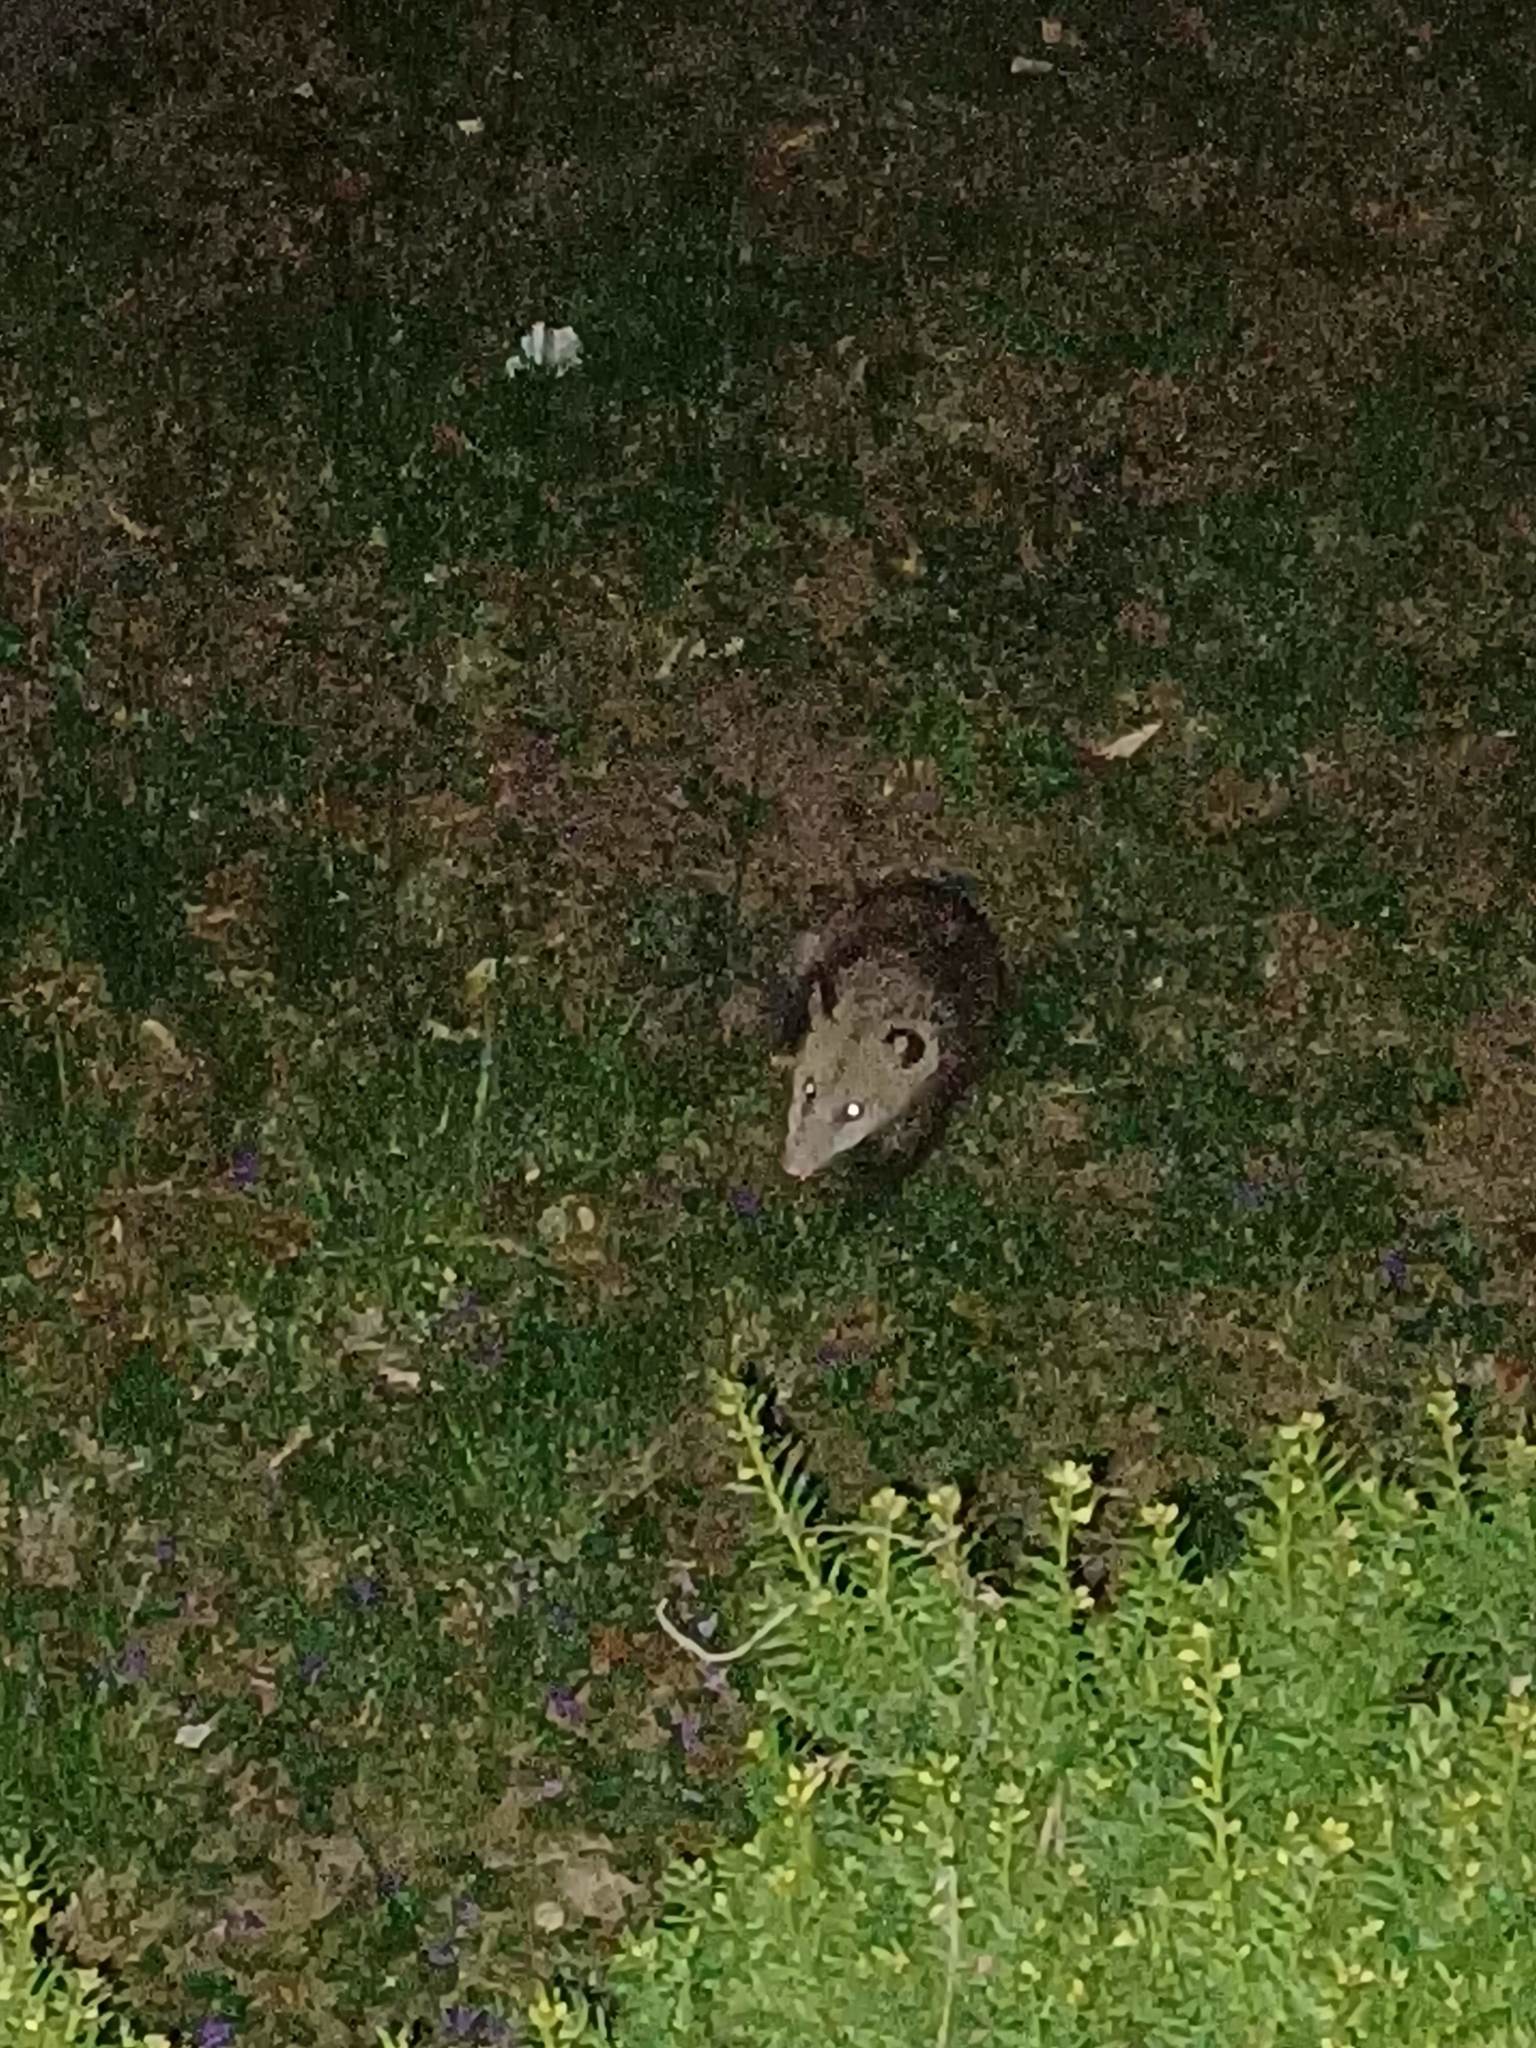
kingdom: Animalia
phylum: Chordata
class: Mammalia
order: Didelphimorphia
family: Didelphidae
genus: Didelphis
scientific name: Didelphis virginiana
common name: Virginia opossum
